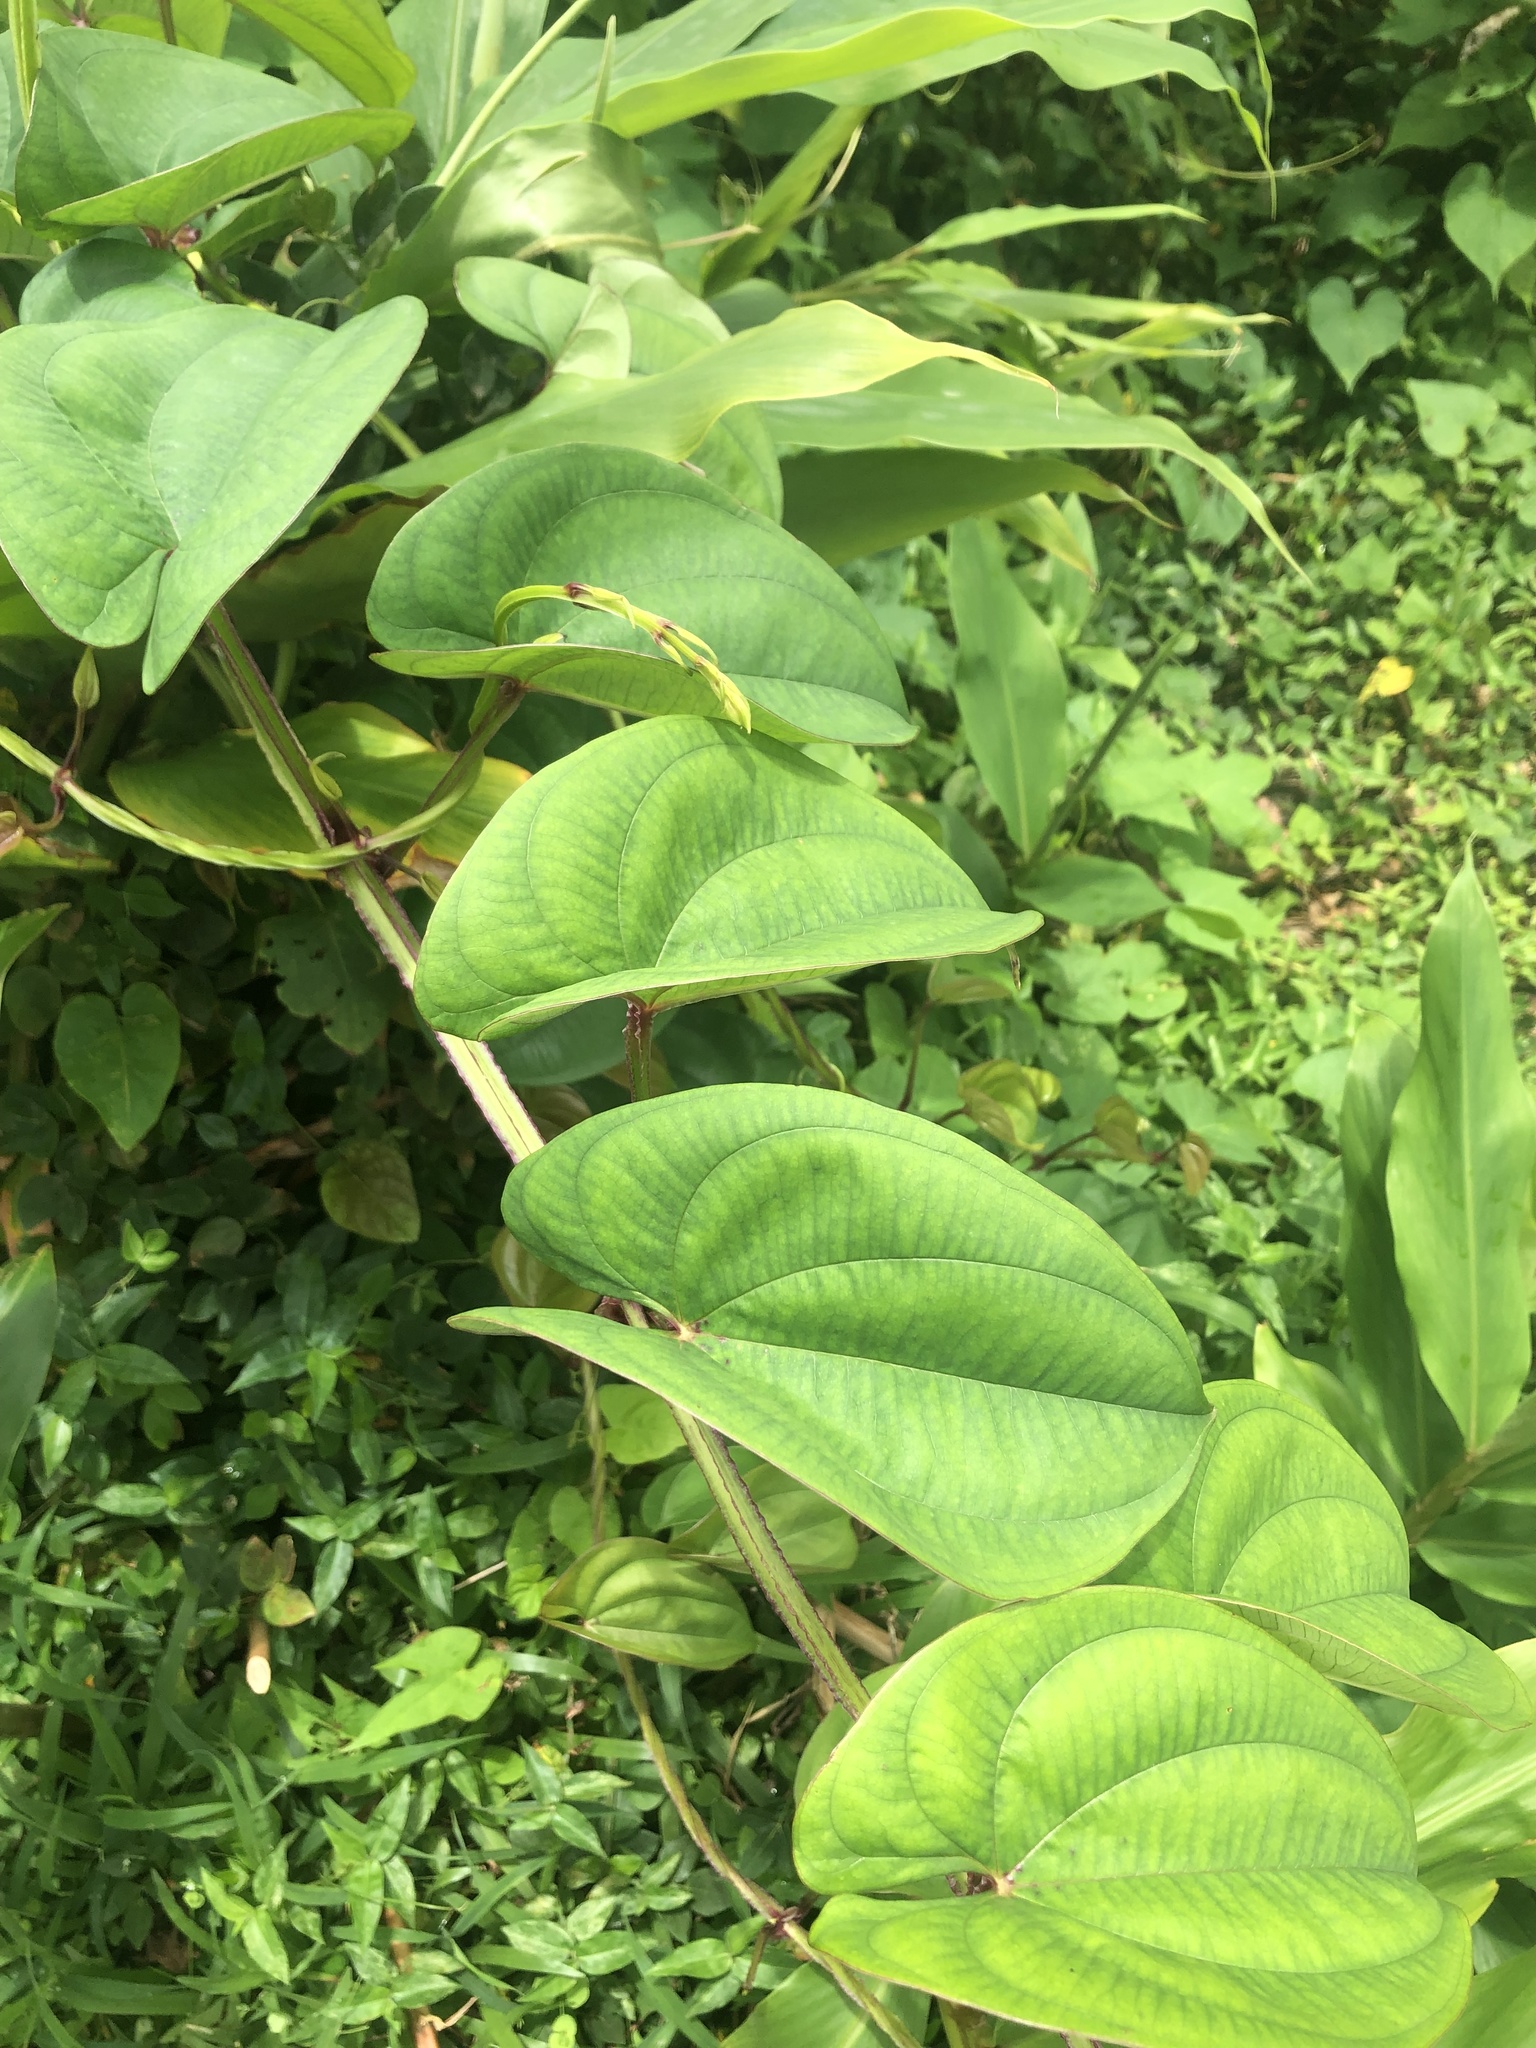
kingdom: Plantae
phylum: Tracheophyta
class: Liliopsida
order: Dioscoreales
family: Dioscoreaceae
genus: Dioscorea
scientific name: Dioscorea alata
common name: Water yam
